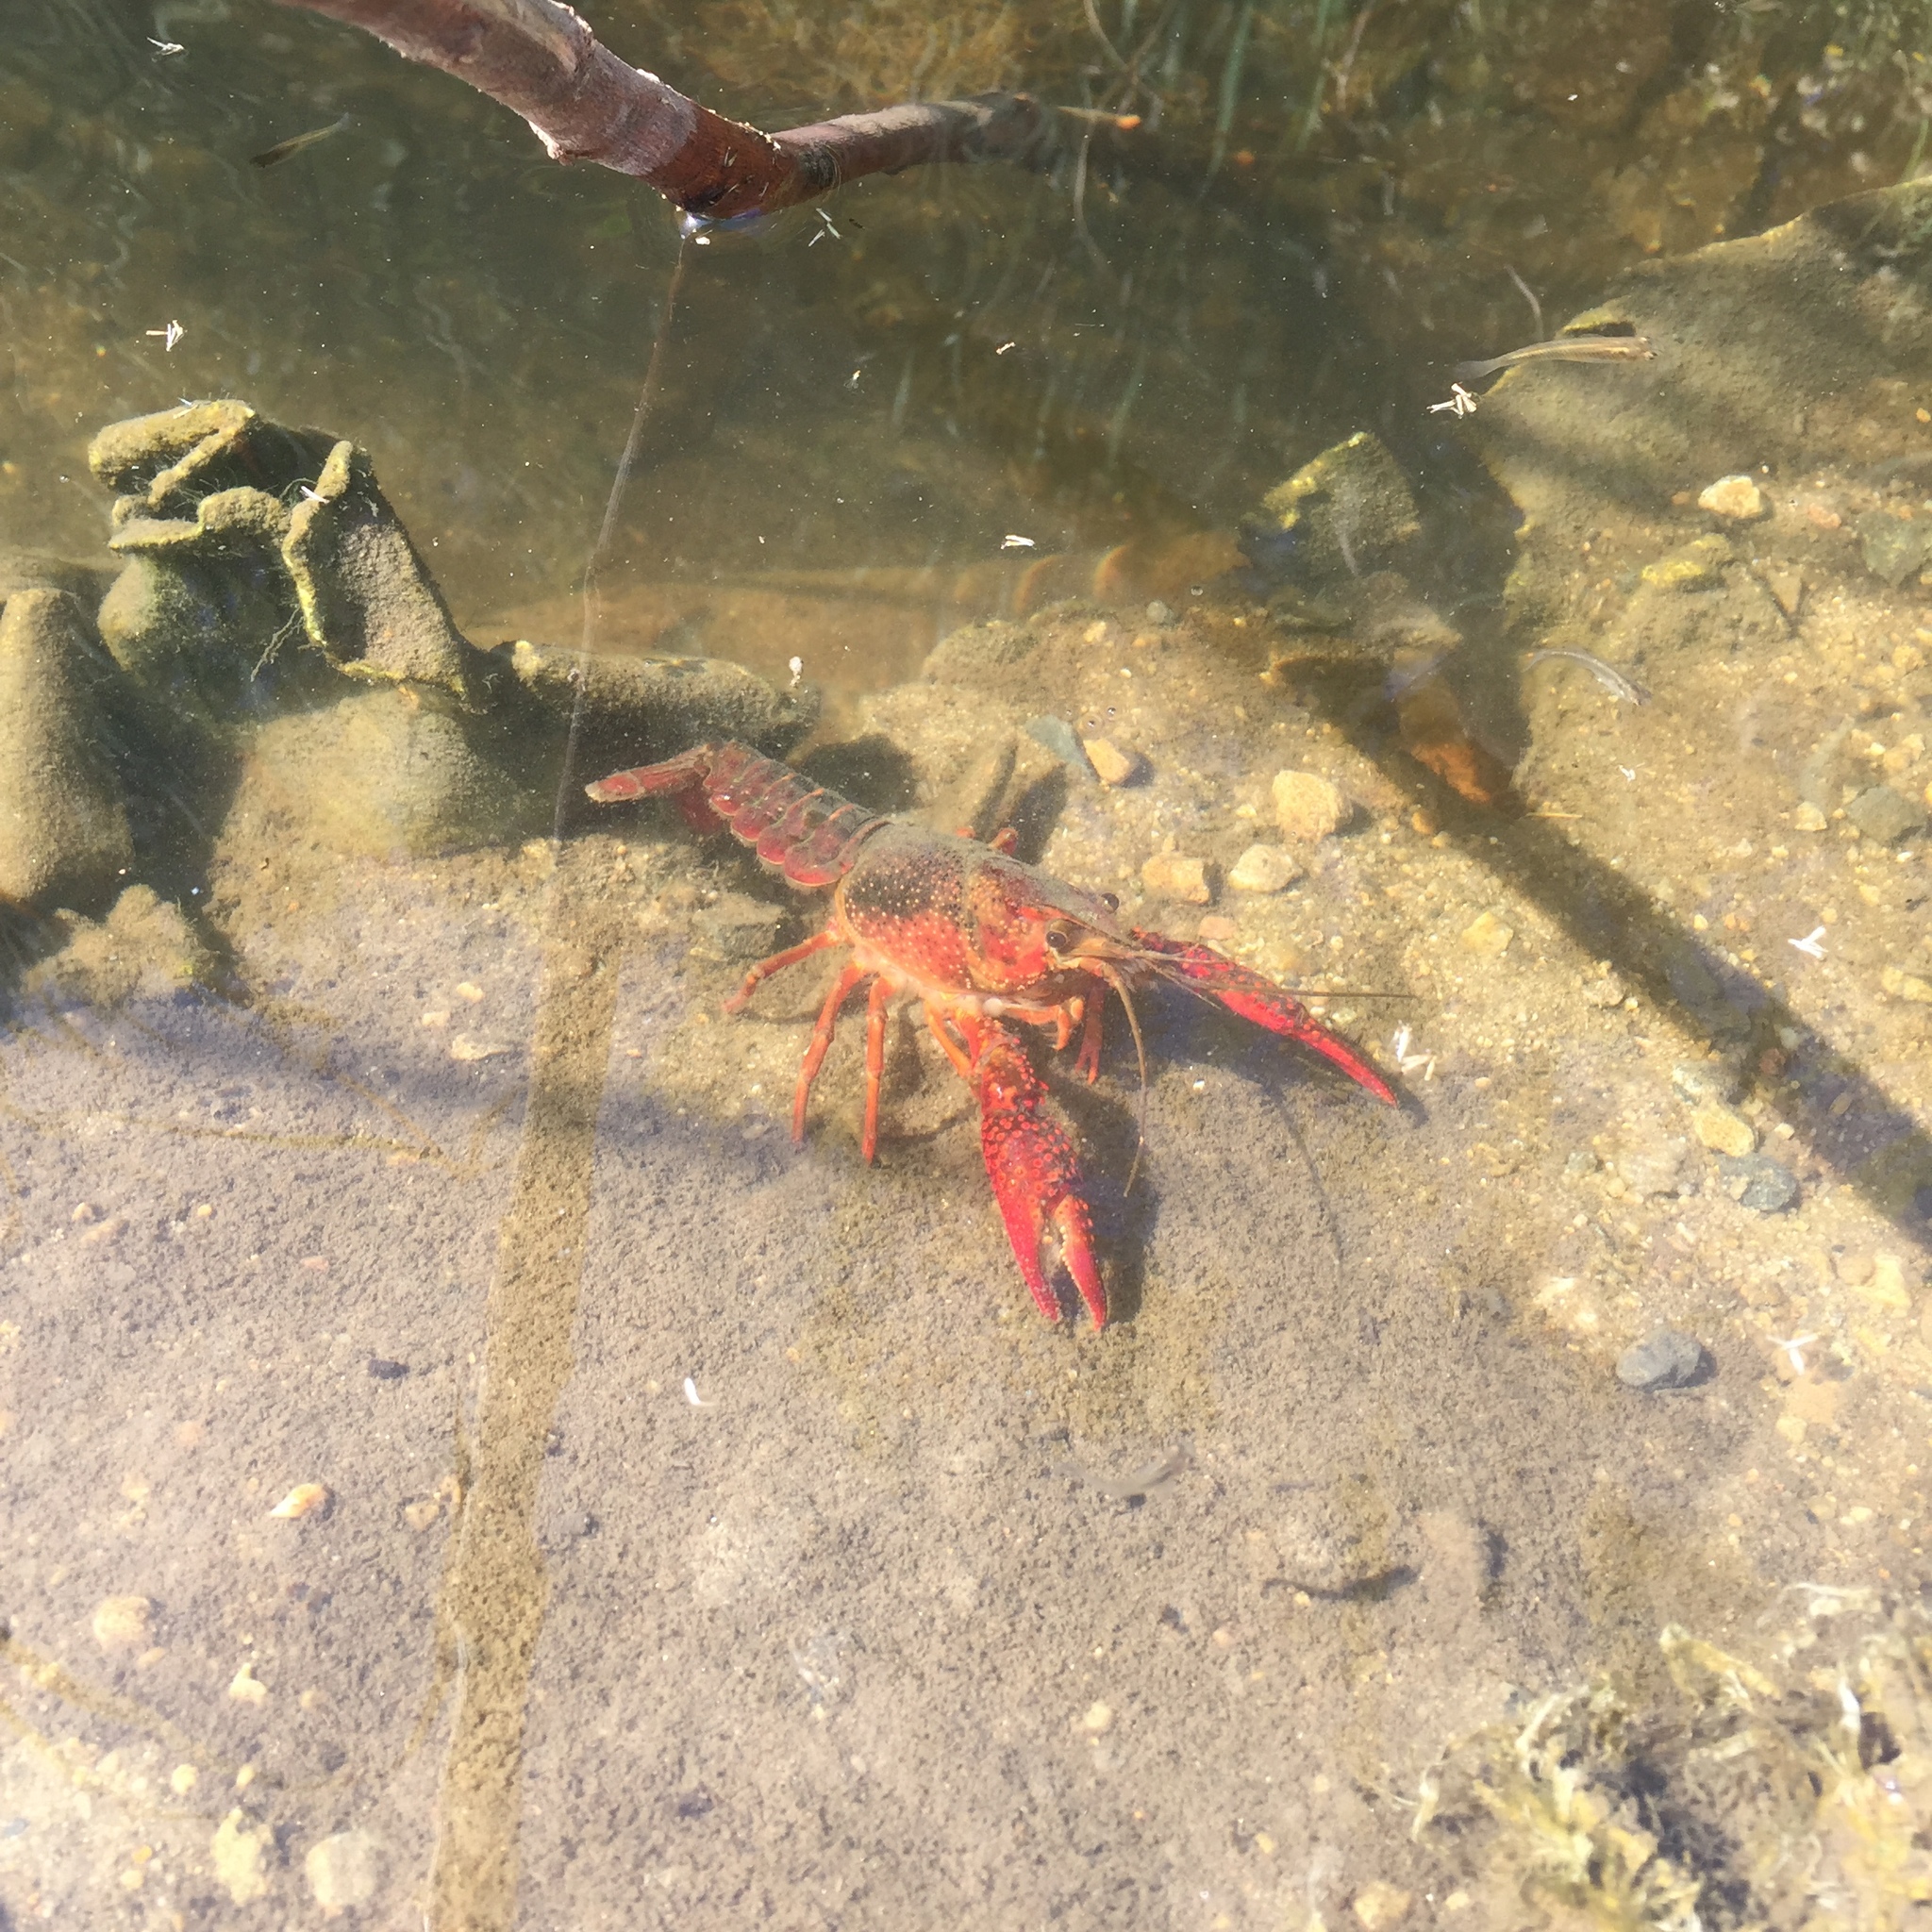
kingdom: Animalia
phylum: Arthropoda
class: Malacostraca
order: Decapoda
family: Cambaridae
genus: Procambarus
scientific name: Procambarus clarkii
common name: Red swamp crayfish
